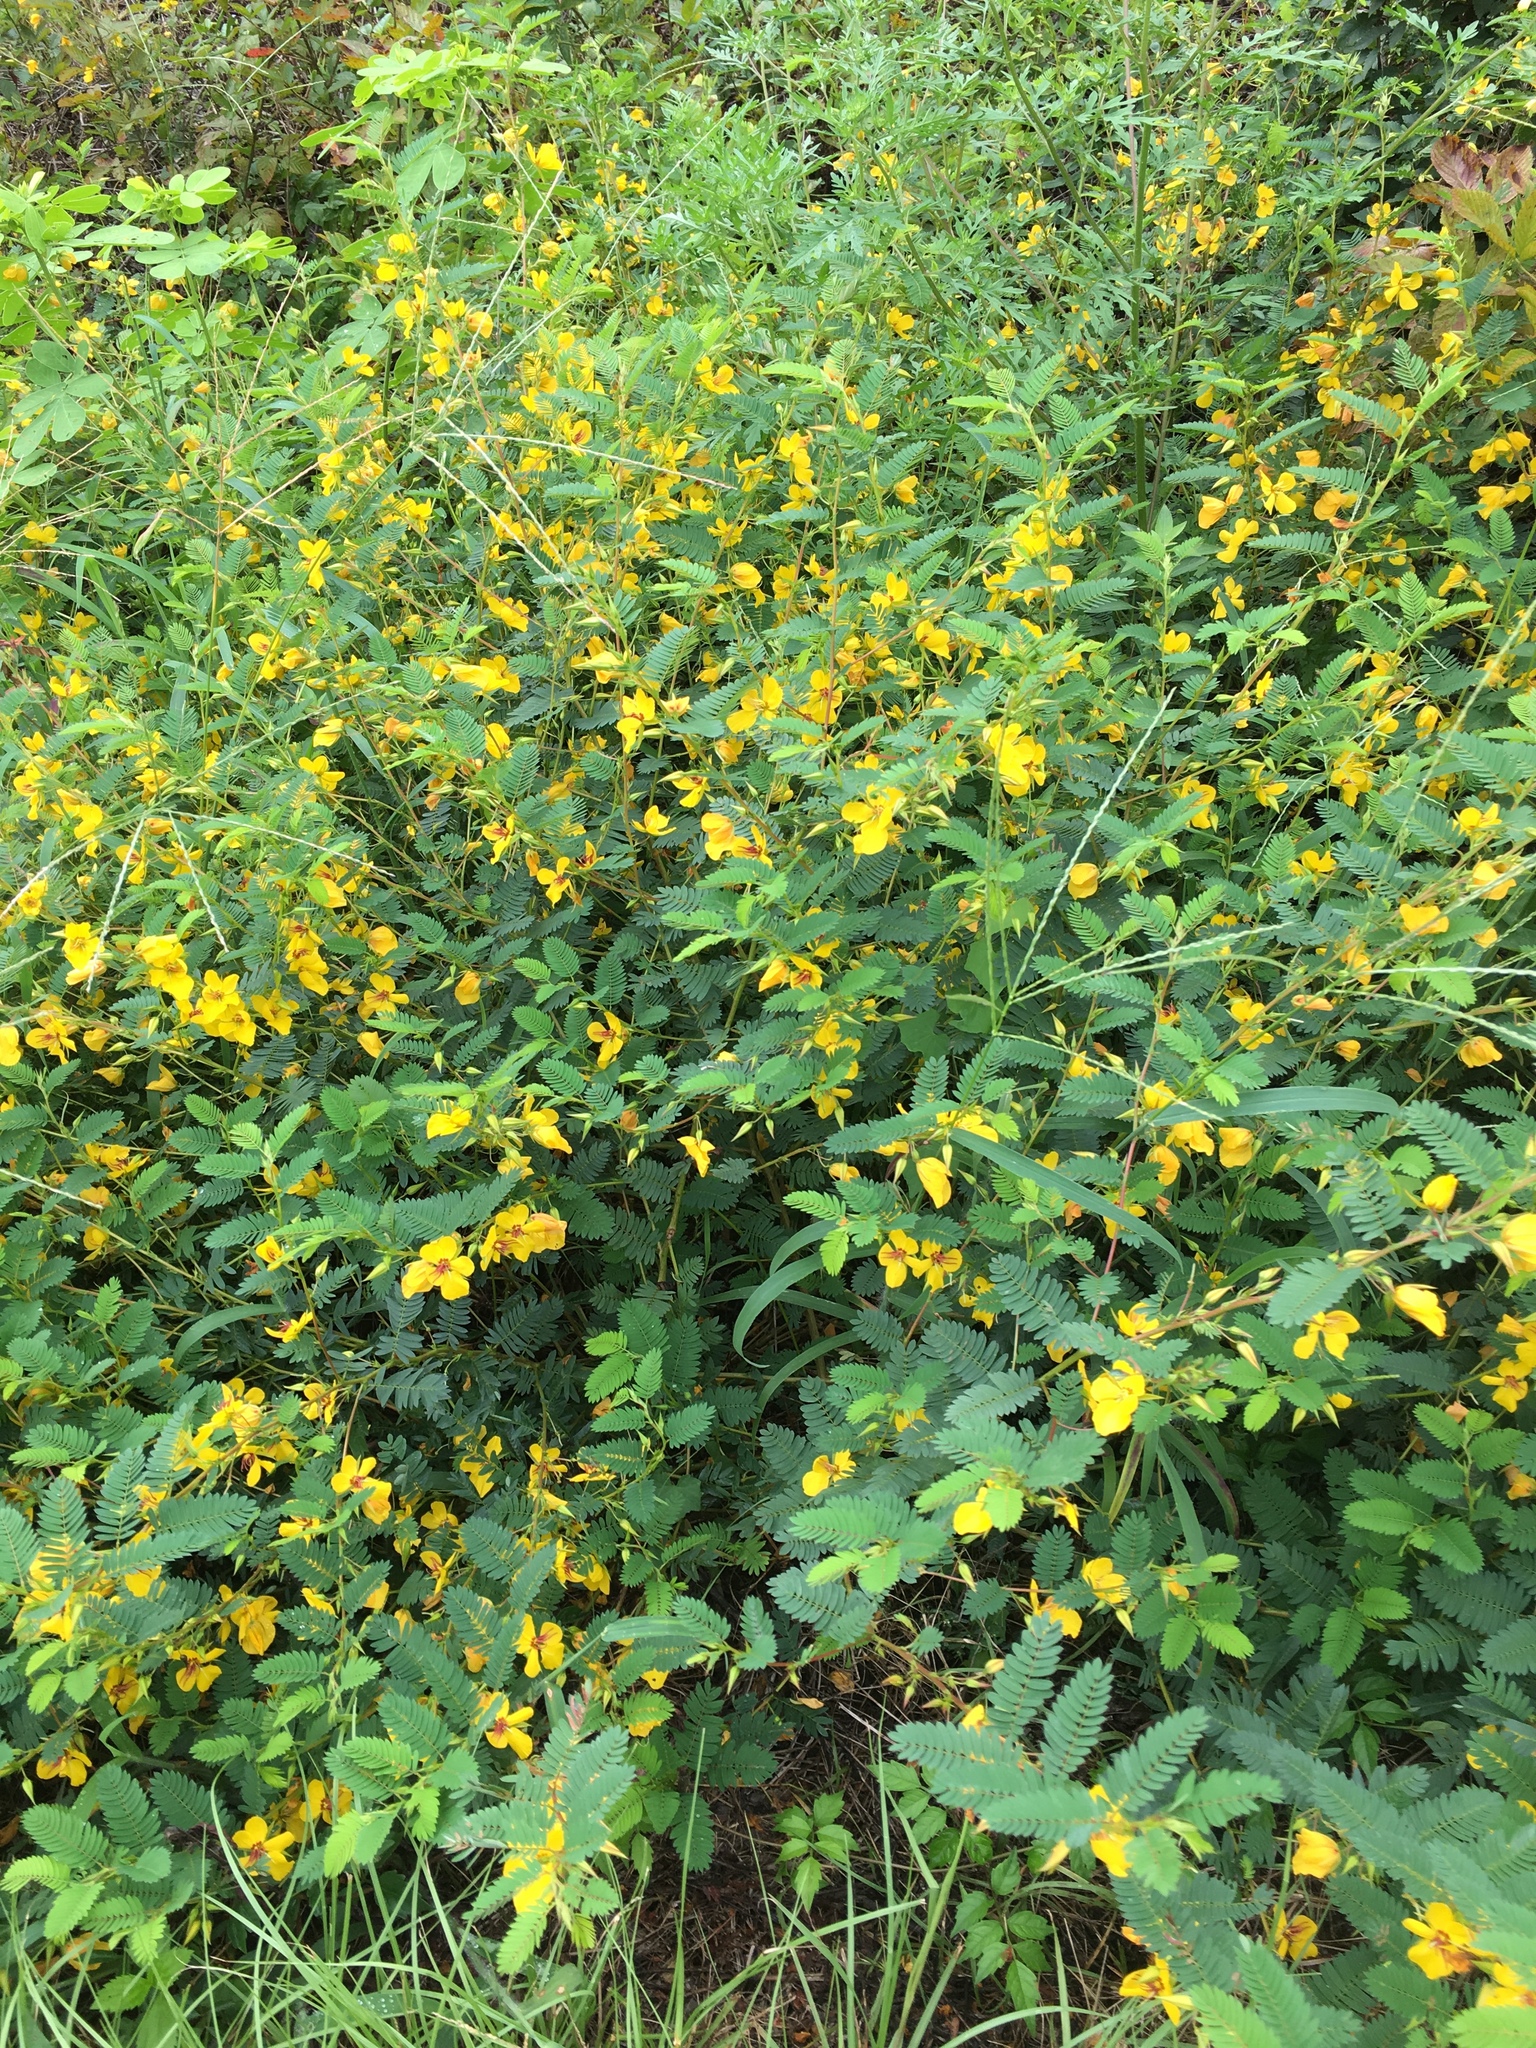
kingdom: Plantae
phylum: Tracheophyta
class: Magnoliopsida
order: Fabales
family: Fabaceae
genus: Chamaecrista
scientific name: Chamaecrista fasciculata
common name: Golden cassia
